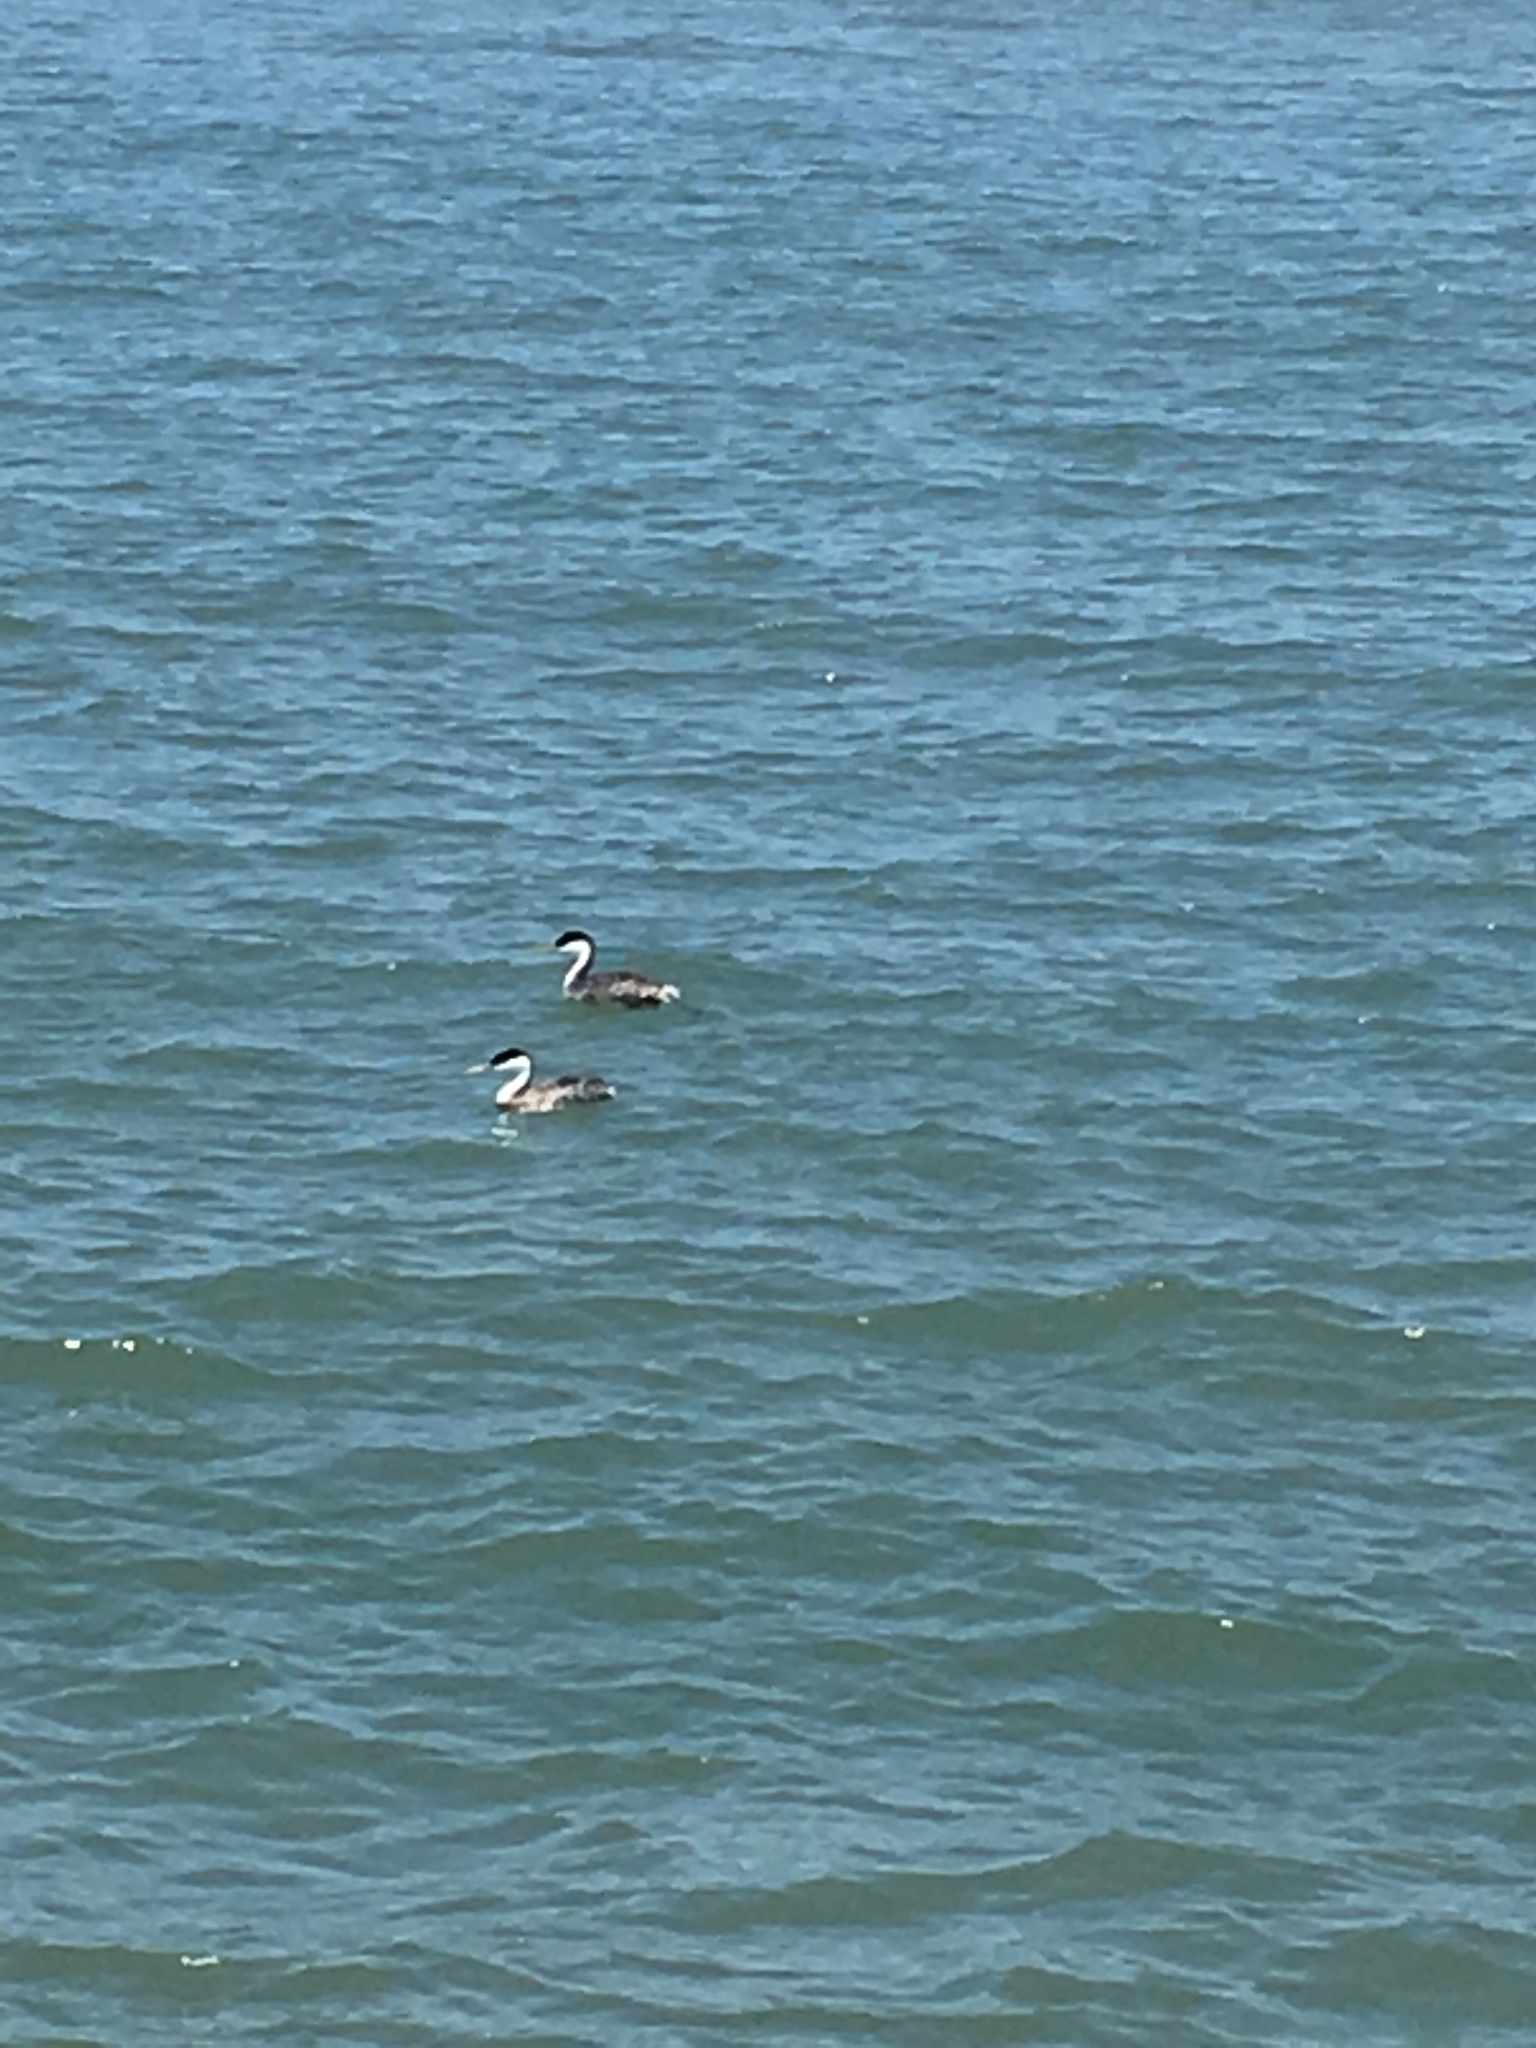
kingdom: Animalia
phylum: Chordata
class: Aves
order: Podicipediformes
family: Podicipedidae
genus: Aechmophorus
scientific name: Aechmophorus occidentalis
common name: Western grebe
